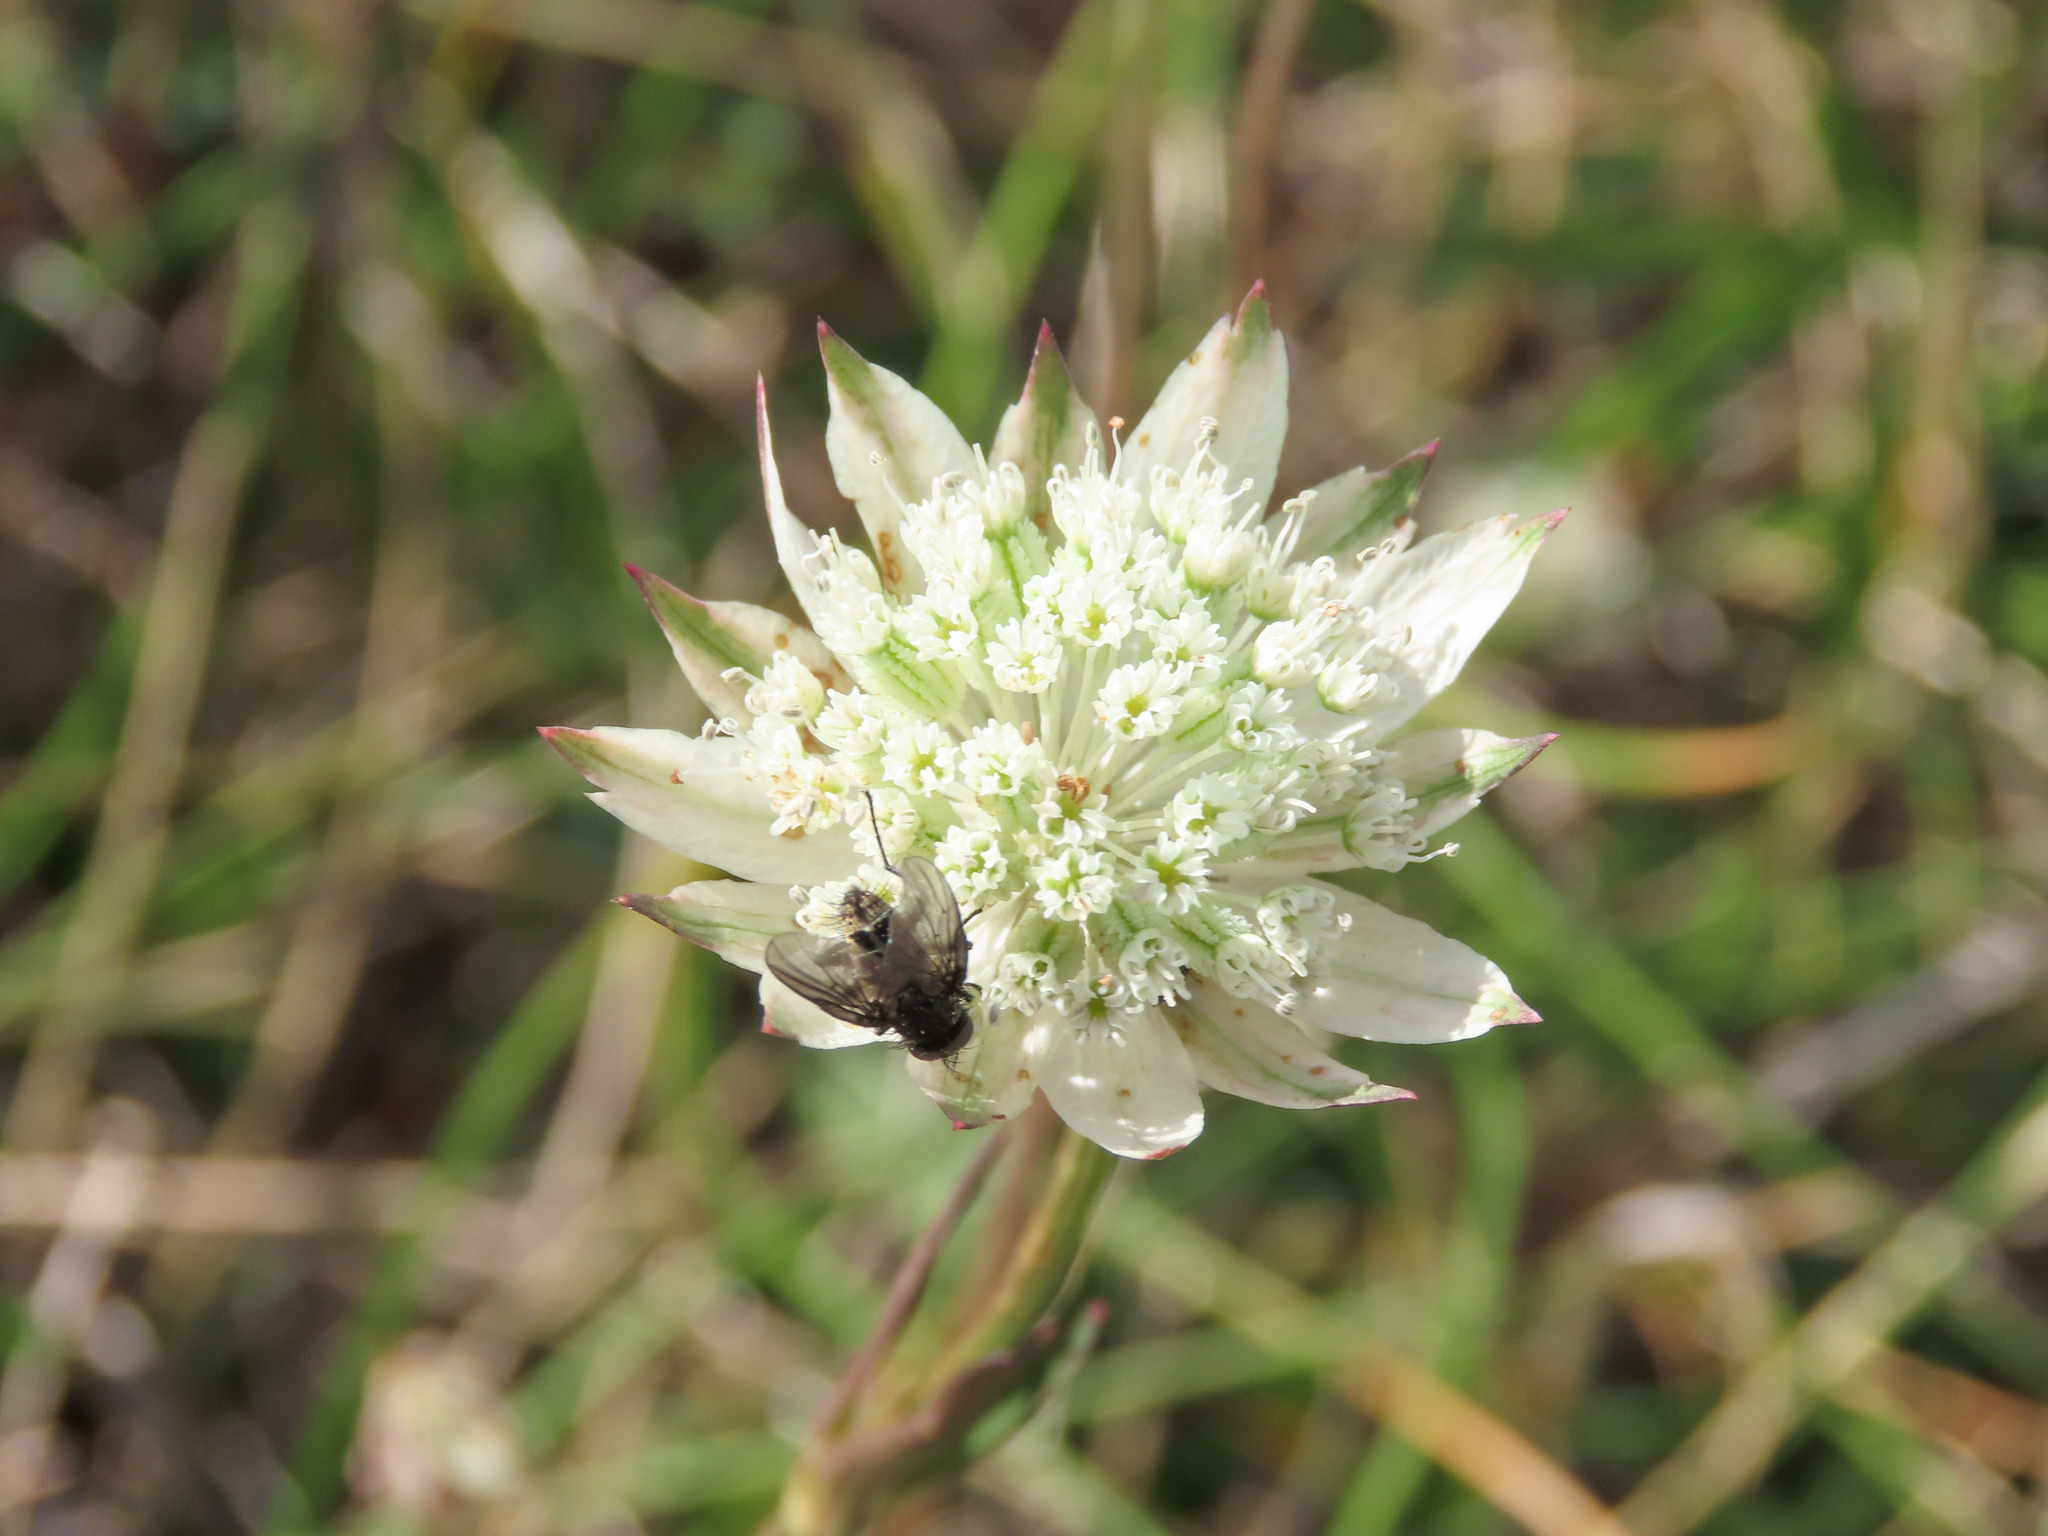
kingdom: Plantae
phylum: Tracheophyta
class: Magnoliopsida
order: Apiales
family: Apiaceae
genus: Astrantia
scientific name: Astrantia pauciflora
